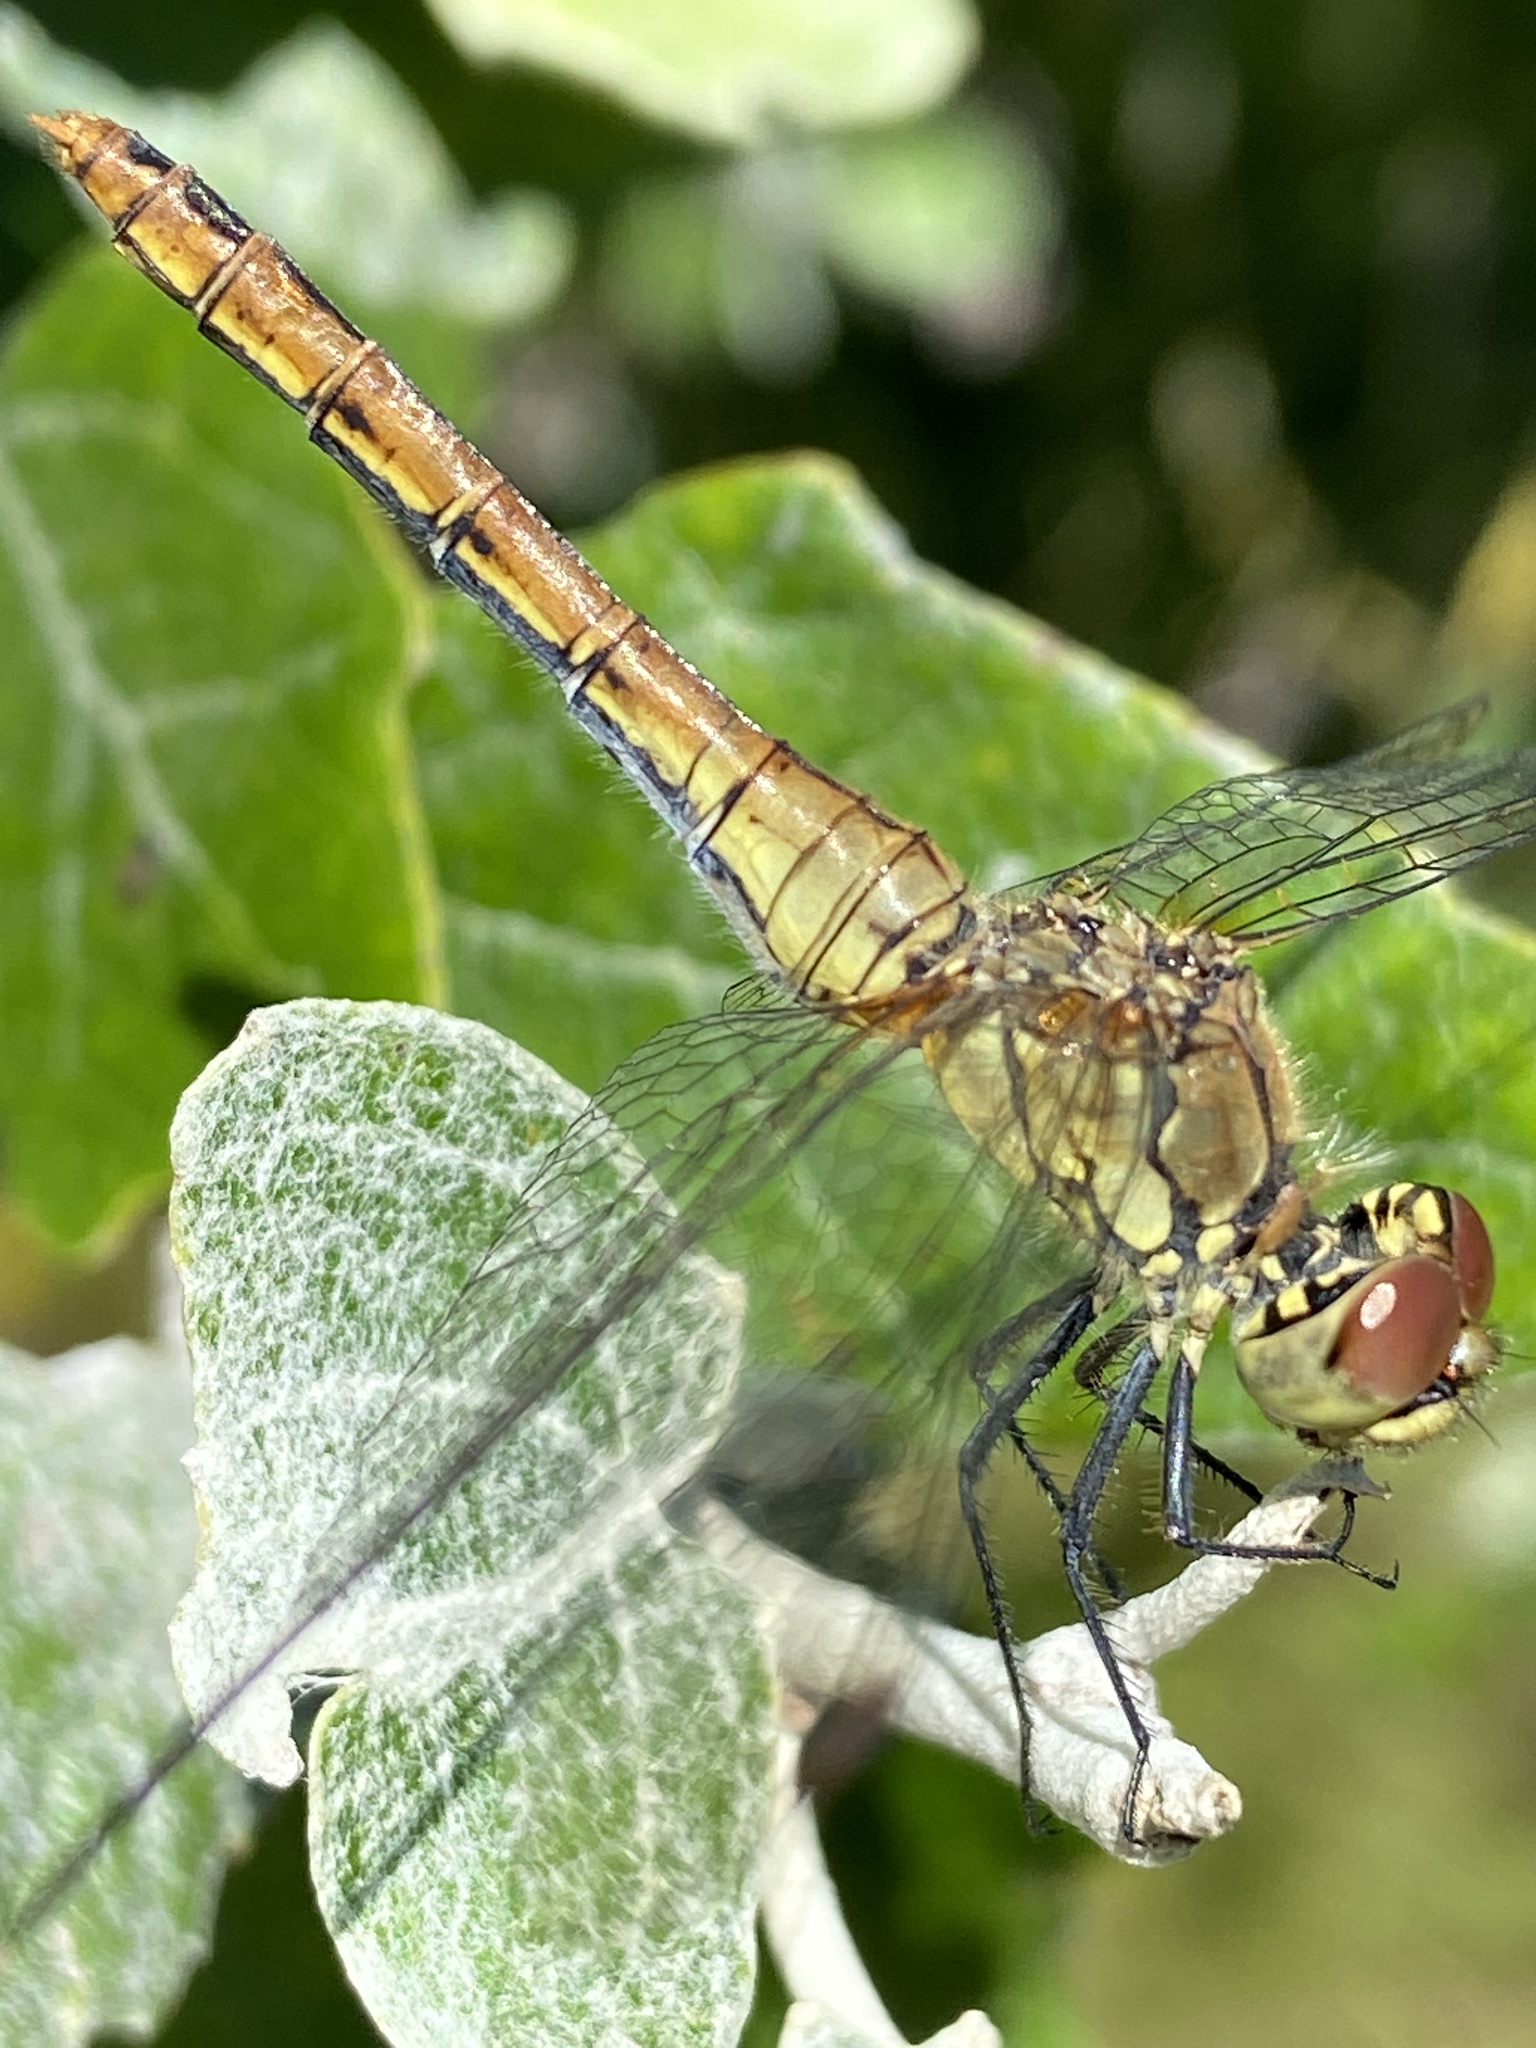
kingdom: Animalia
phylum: Arthropoda
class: Insecta
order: Odonata
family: Libellulidae
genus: Sympetrum
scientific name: Sympetrum sanguineum
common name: Ruddy darter
